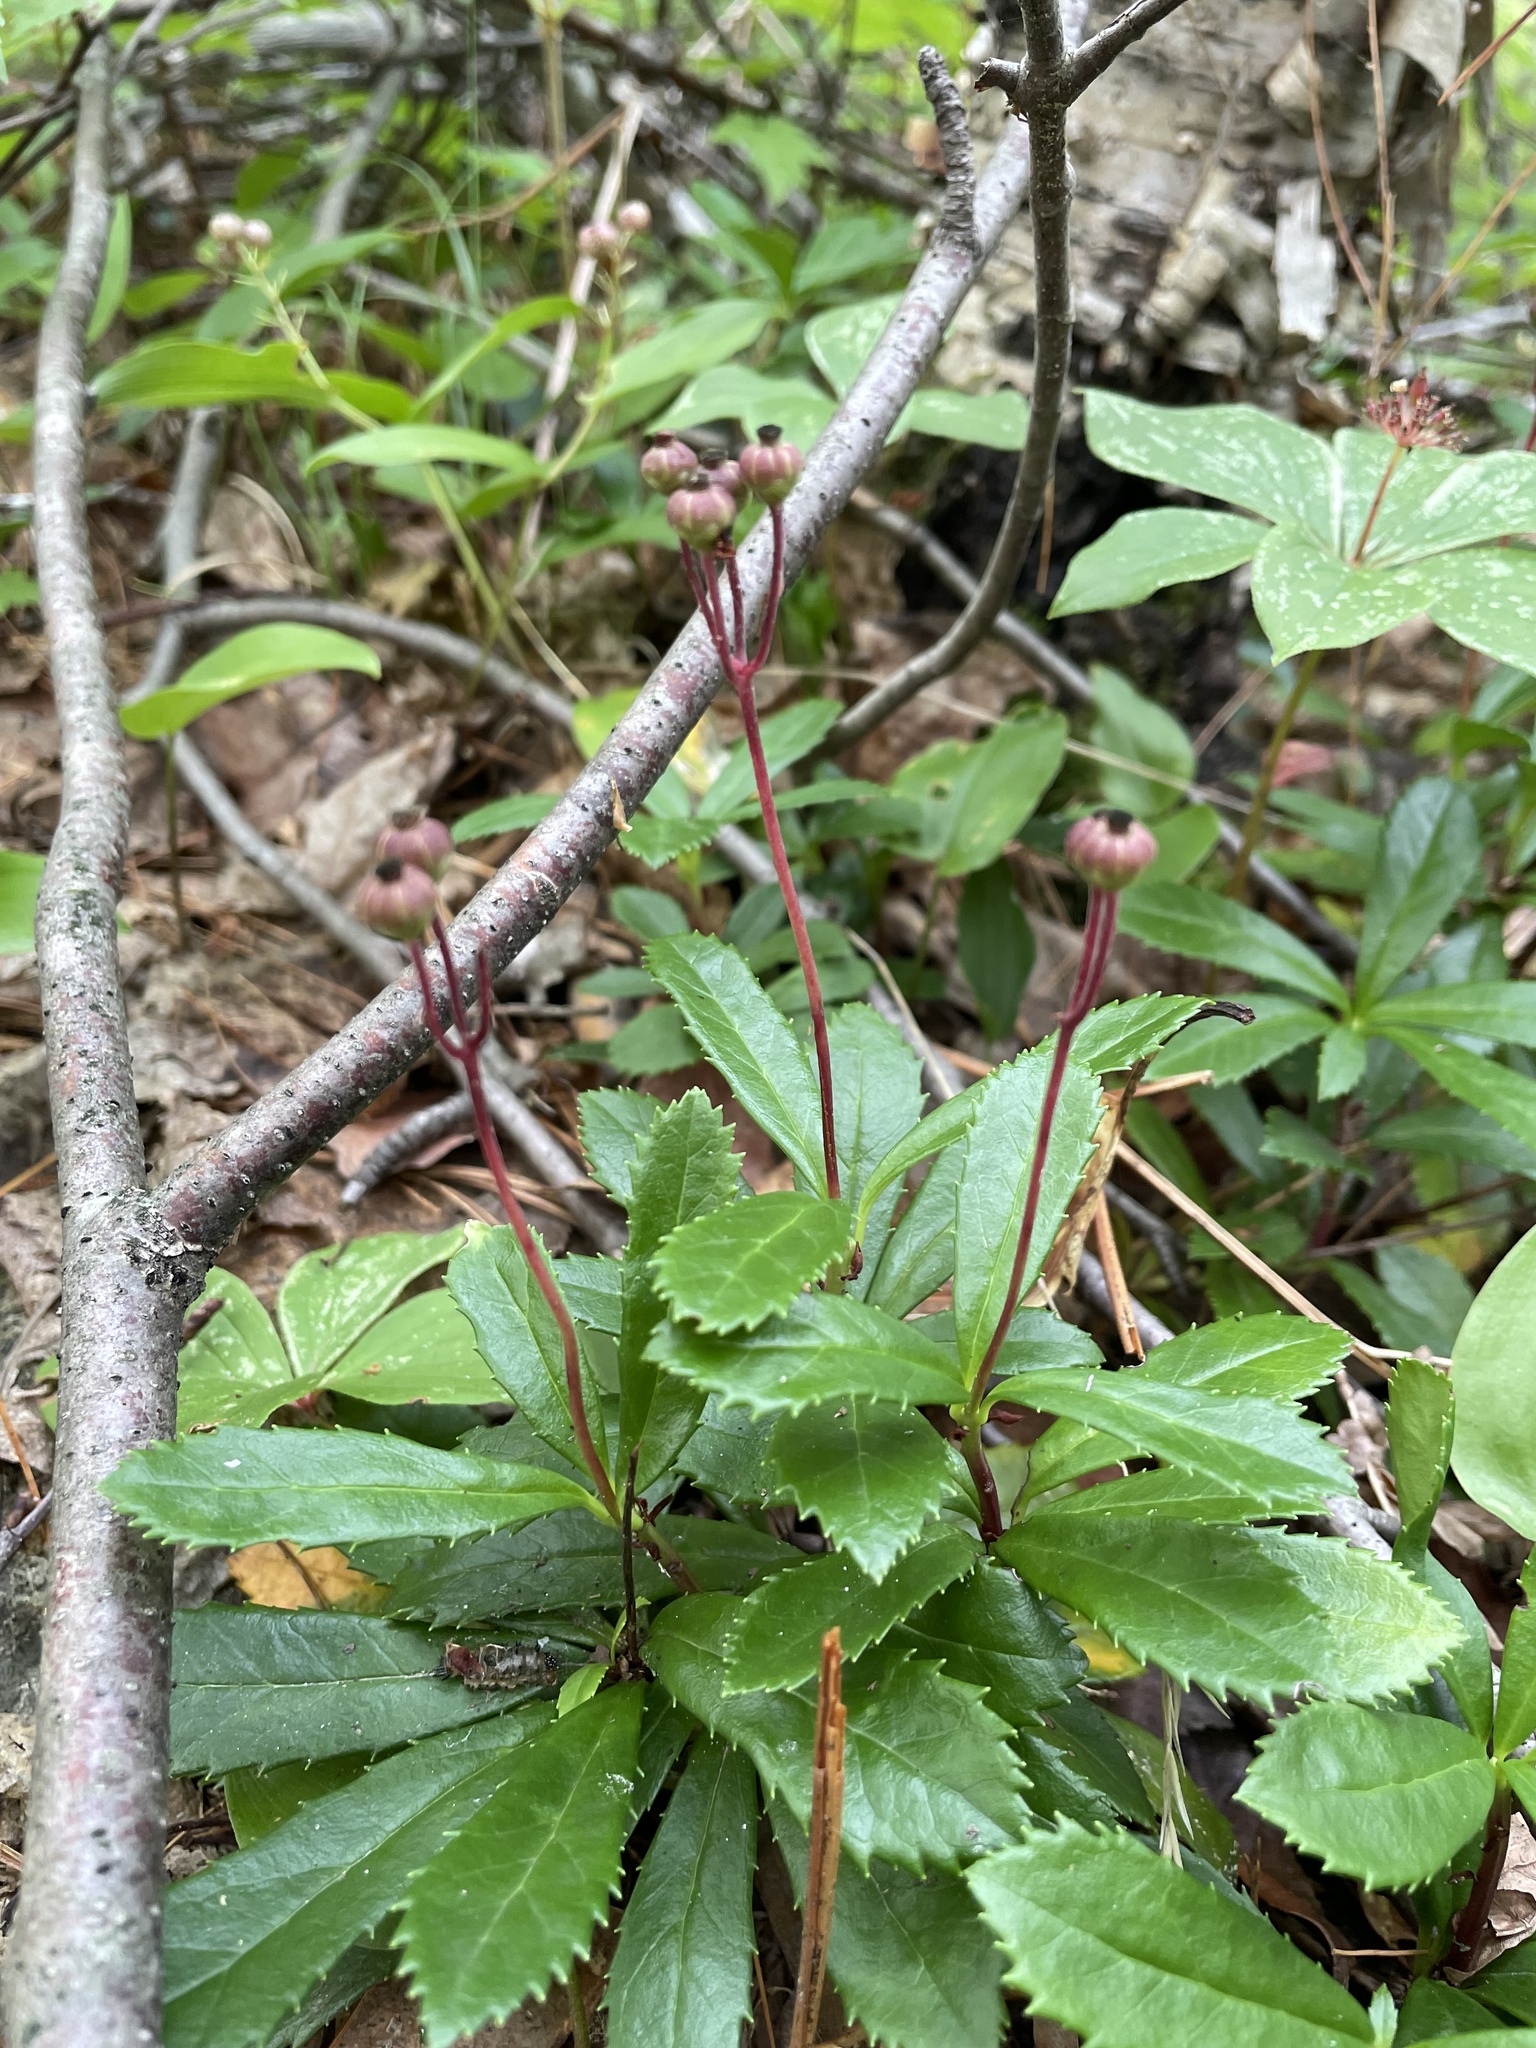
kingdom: Plantae
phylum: Tracheophyta
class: Magnoliopsida
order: Ericales
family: Ericaceae
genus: Chimaphila
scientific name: Chimaphila umbellata
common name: Pipsissewa
